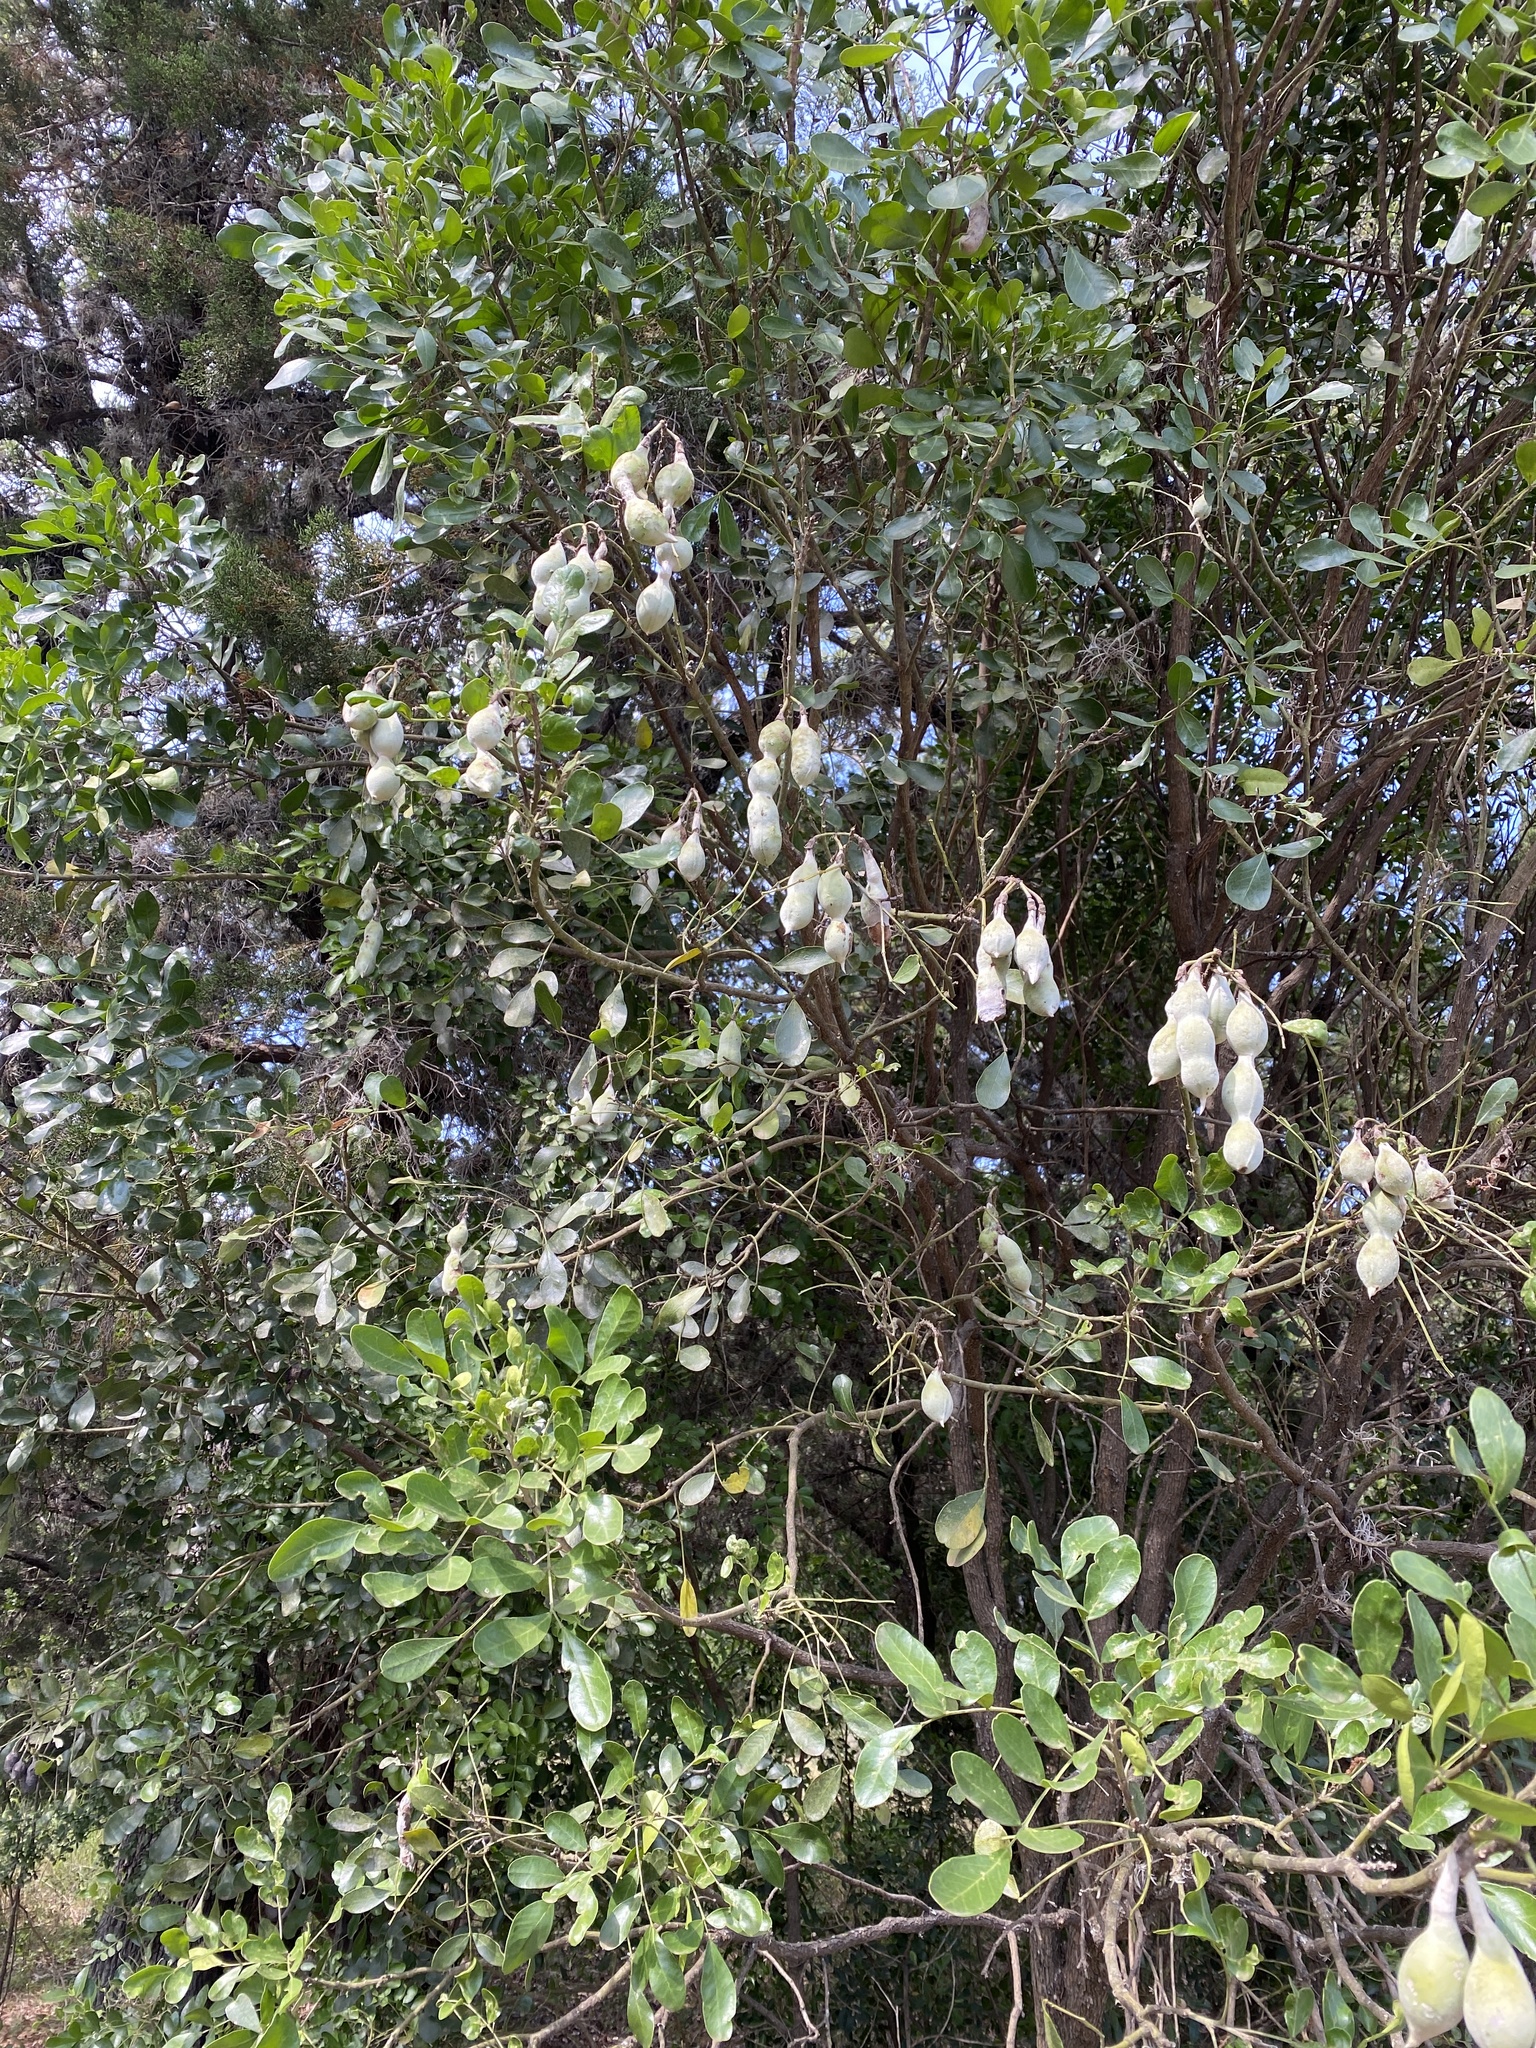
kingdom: Plantae
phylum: Tracheophyta
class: Magnoliopsida
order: Fabales
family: Fabaceae
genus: Dermatophyllum
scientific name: Dermatophyllum secundiflorum
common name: Texas-mountain-laurel
